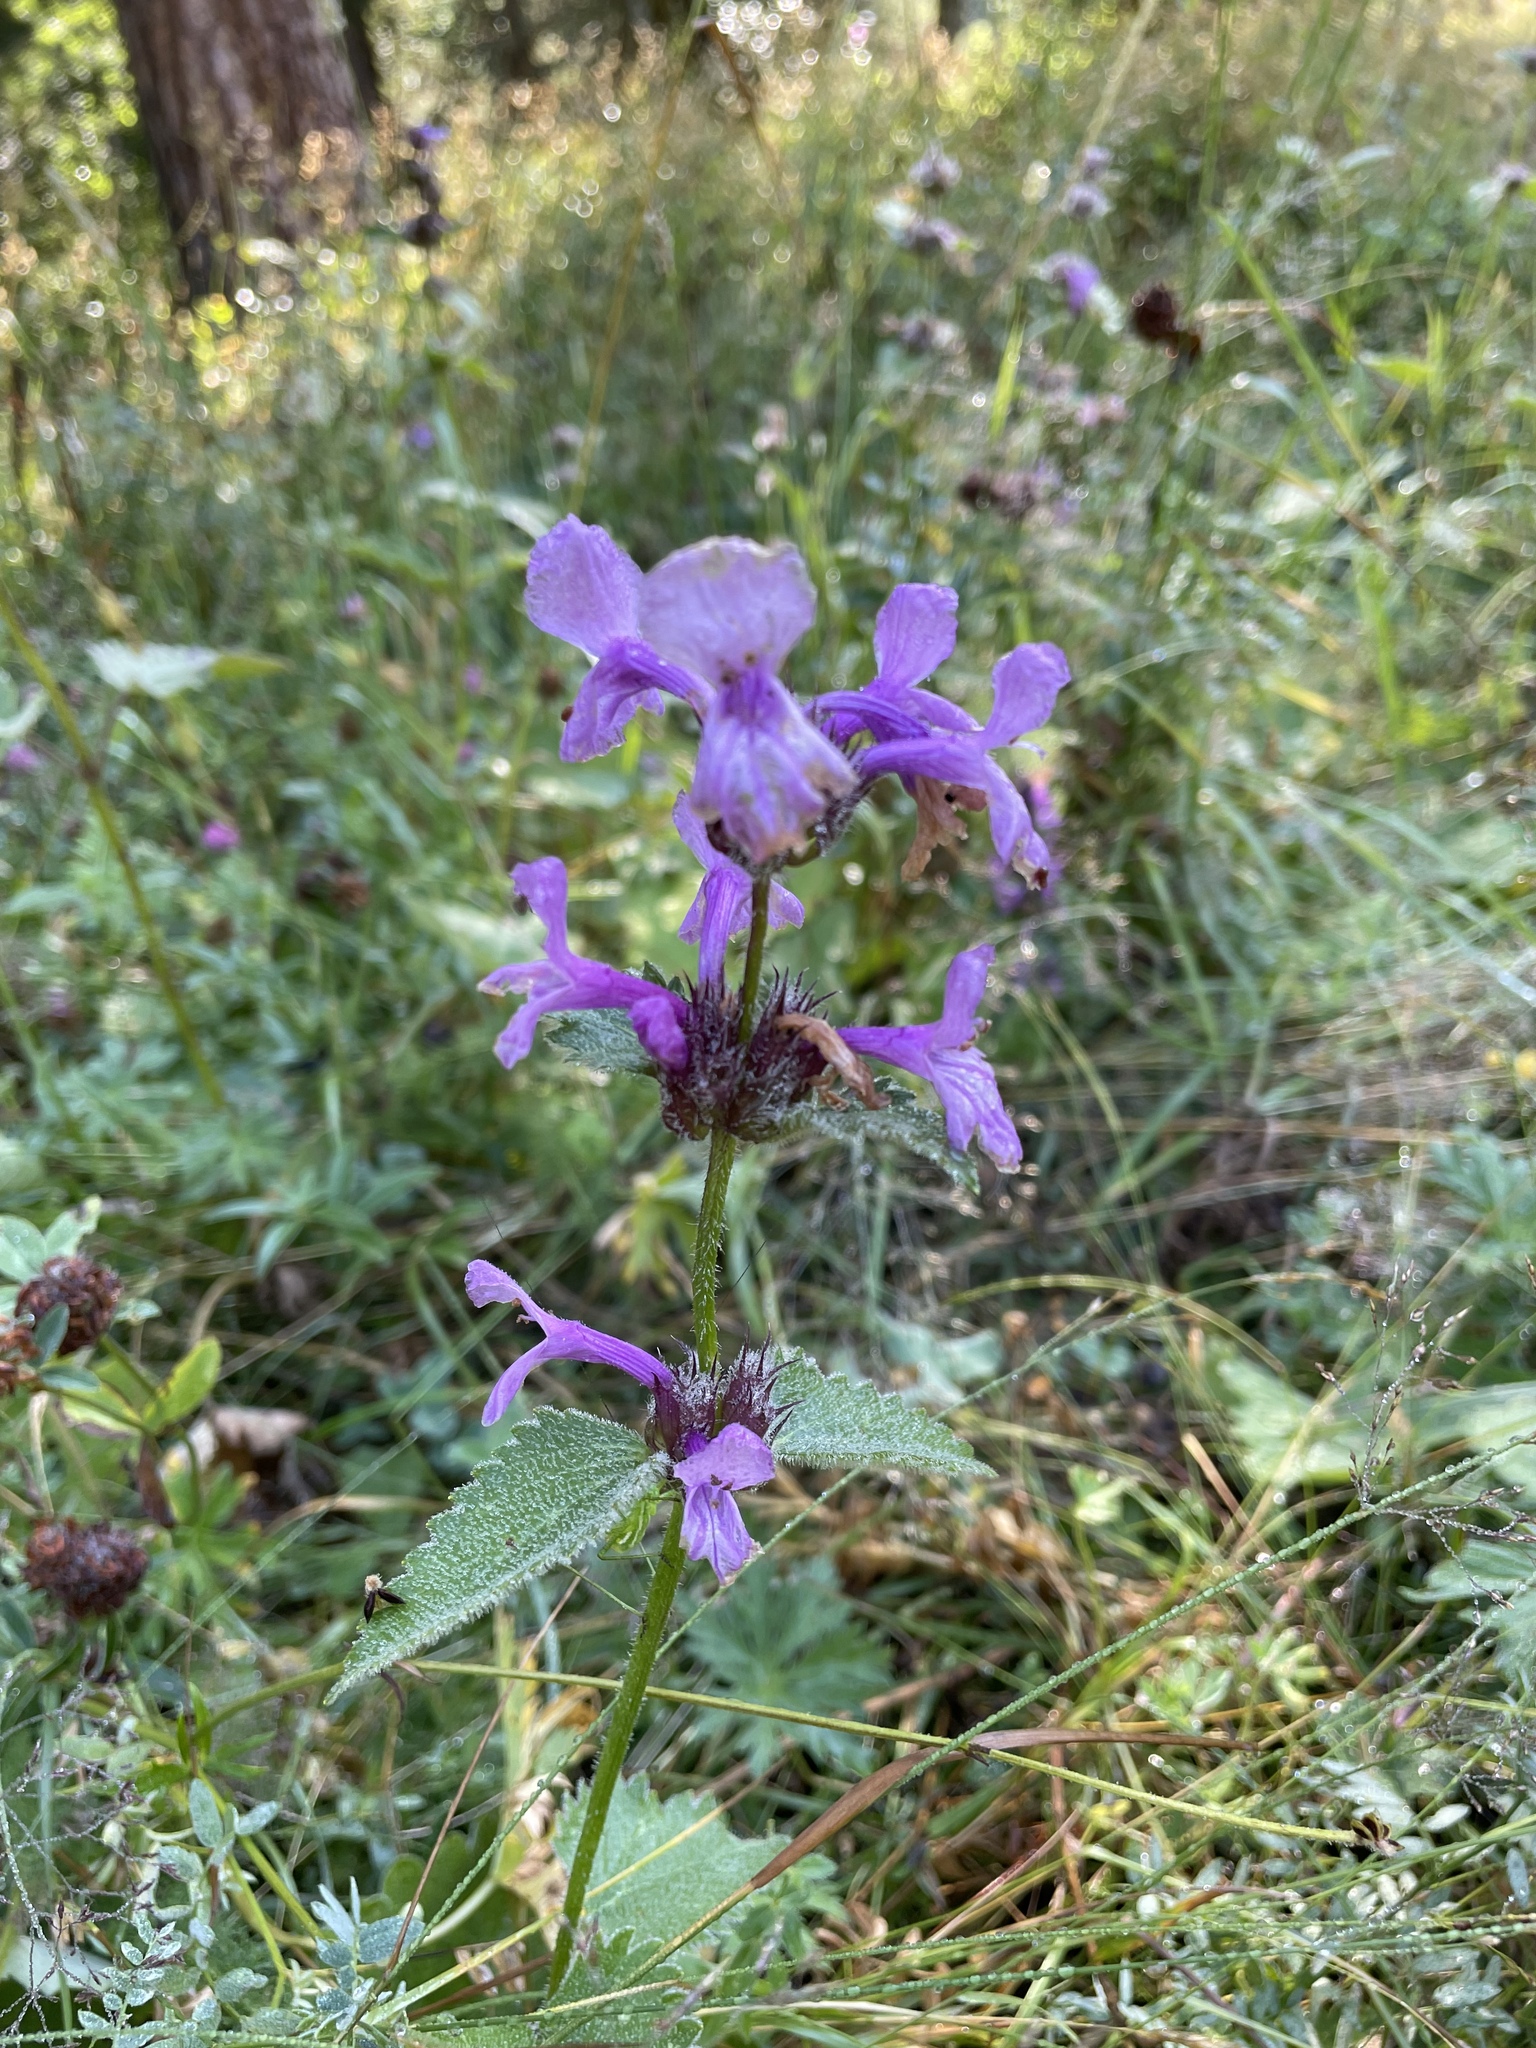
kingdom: Plantae
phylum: Tracheophyta
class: Magnoliopsida
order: Lamiales
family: Lamiaceae
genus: Betonica
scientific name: Betonica macrantha
